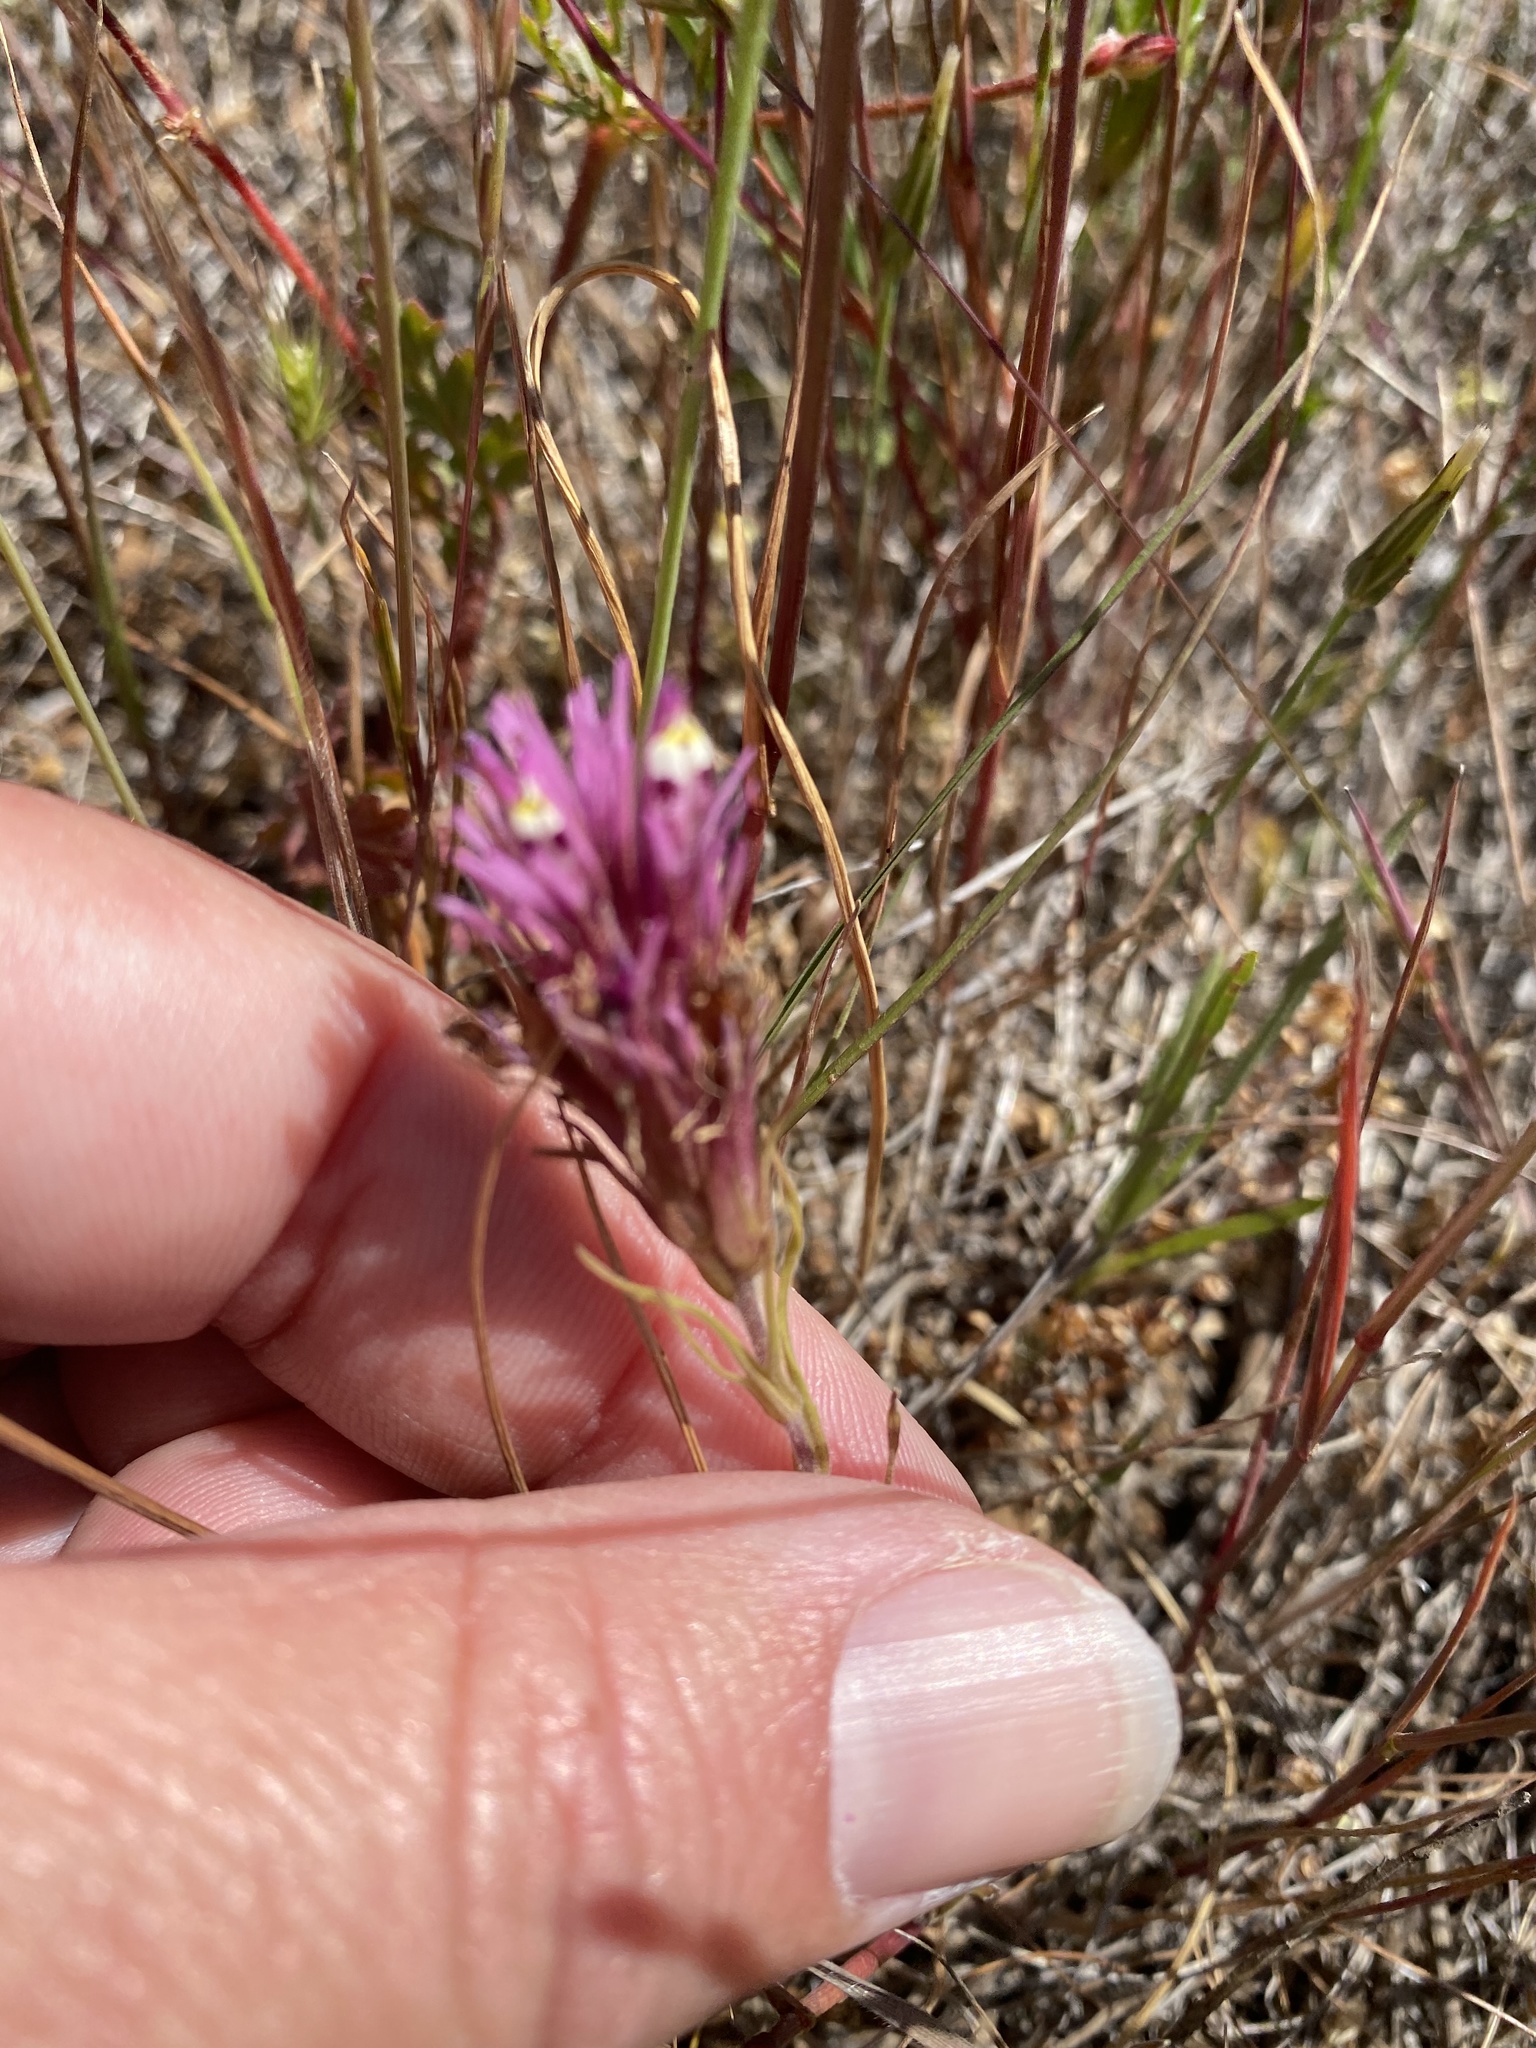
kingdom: Plantae
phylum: Tracheophyta
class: Magnoliopsida
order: Lamiales
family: Orobanchaceae
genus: Castilleja
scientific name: Castilleja densiflora
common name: Dense-flower indian paintbrush
